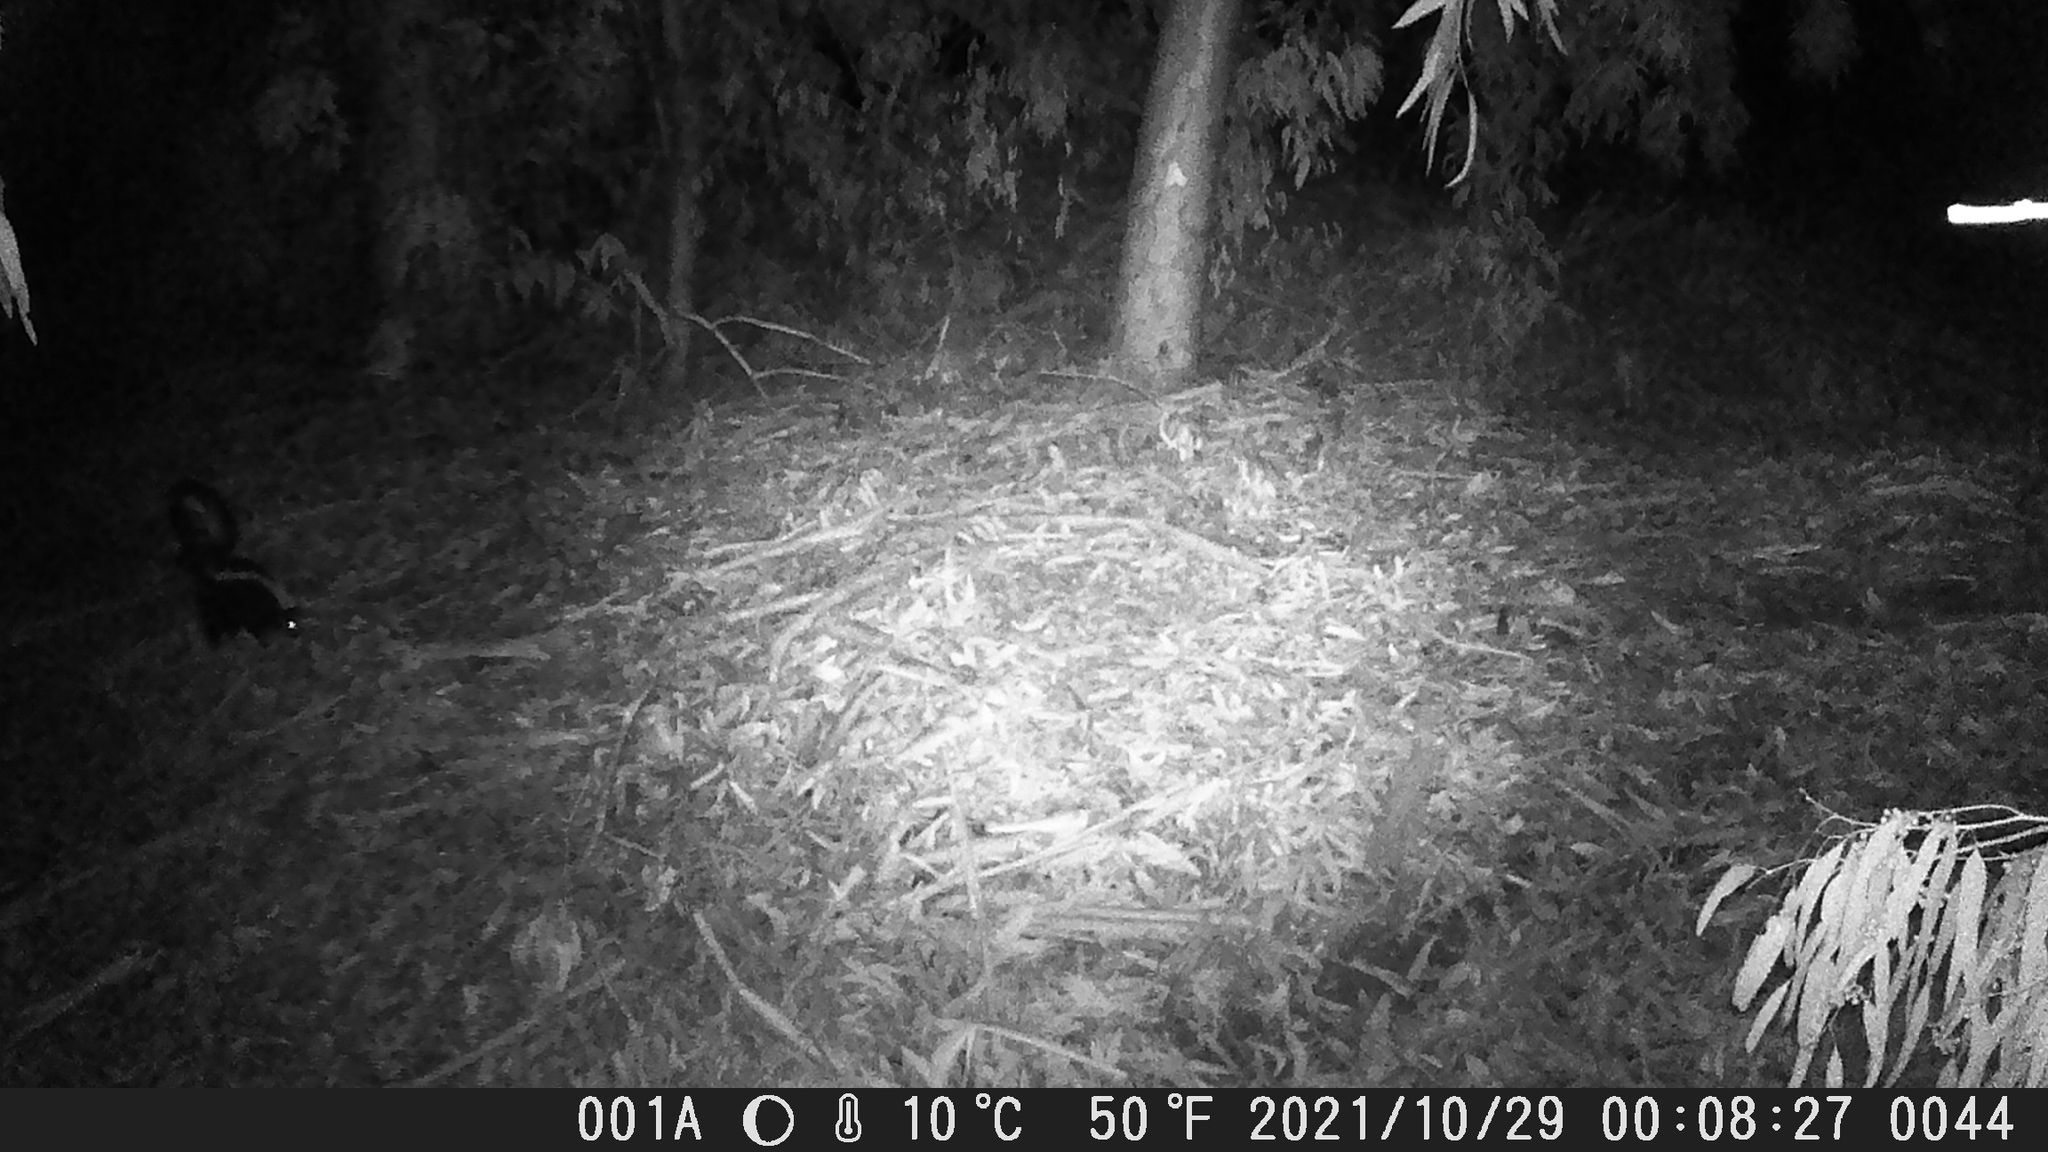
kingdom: Animalia
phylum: Chordata
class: Mammalia
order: Carnivora
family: Mephitidae
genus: Mephitis
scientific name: Mephitis mephitis
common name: Striped skunk
